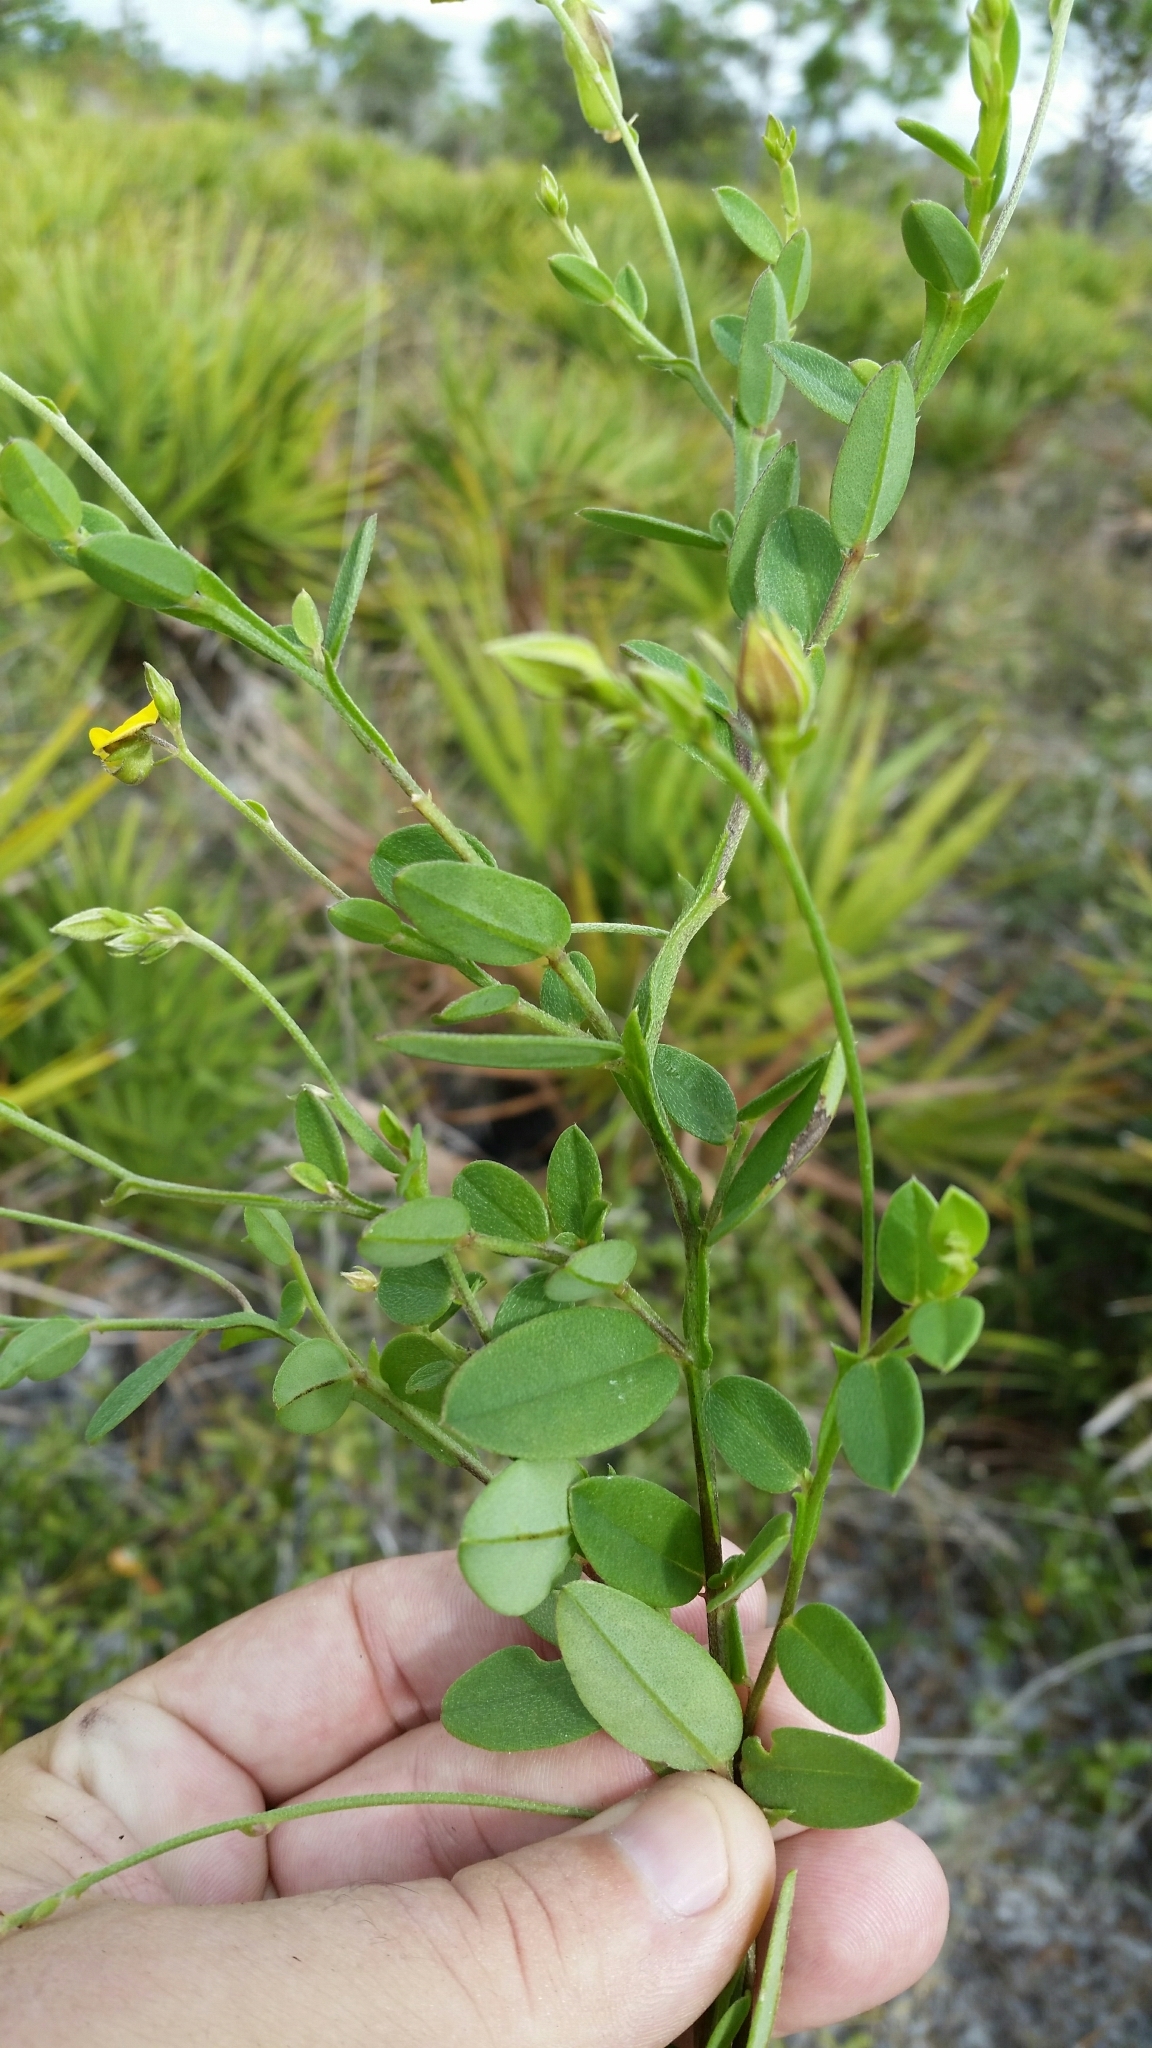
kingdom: Plantae
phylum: Tracheophyta
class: Magnoliopsida
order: Fabales
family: Fabaceae
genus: Crotalaria
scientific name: Crotalaria rotundifolia
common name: Prostrate rattlebox
